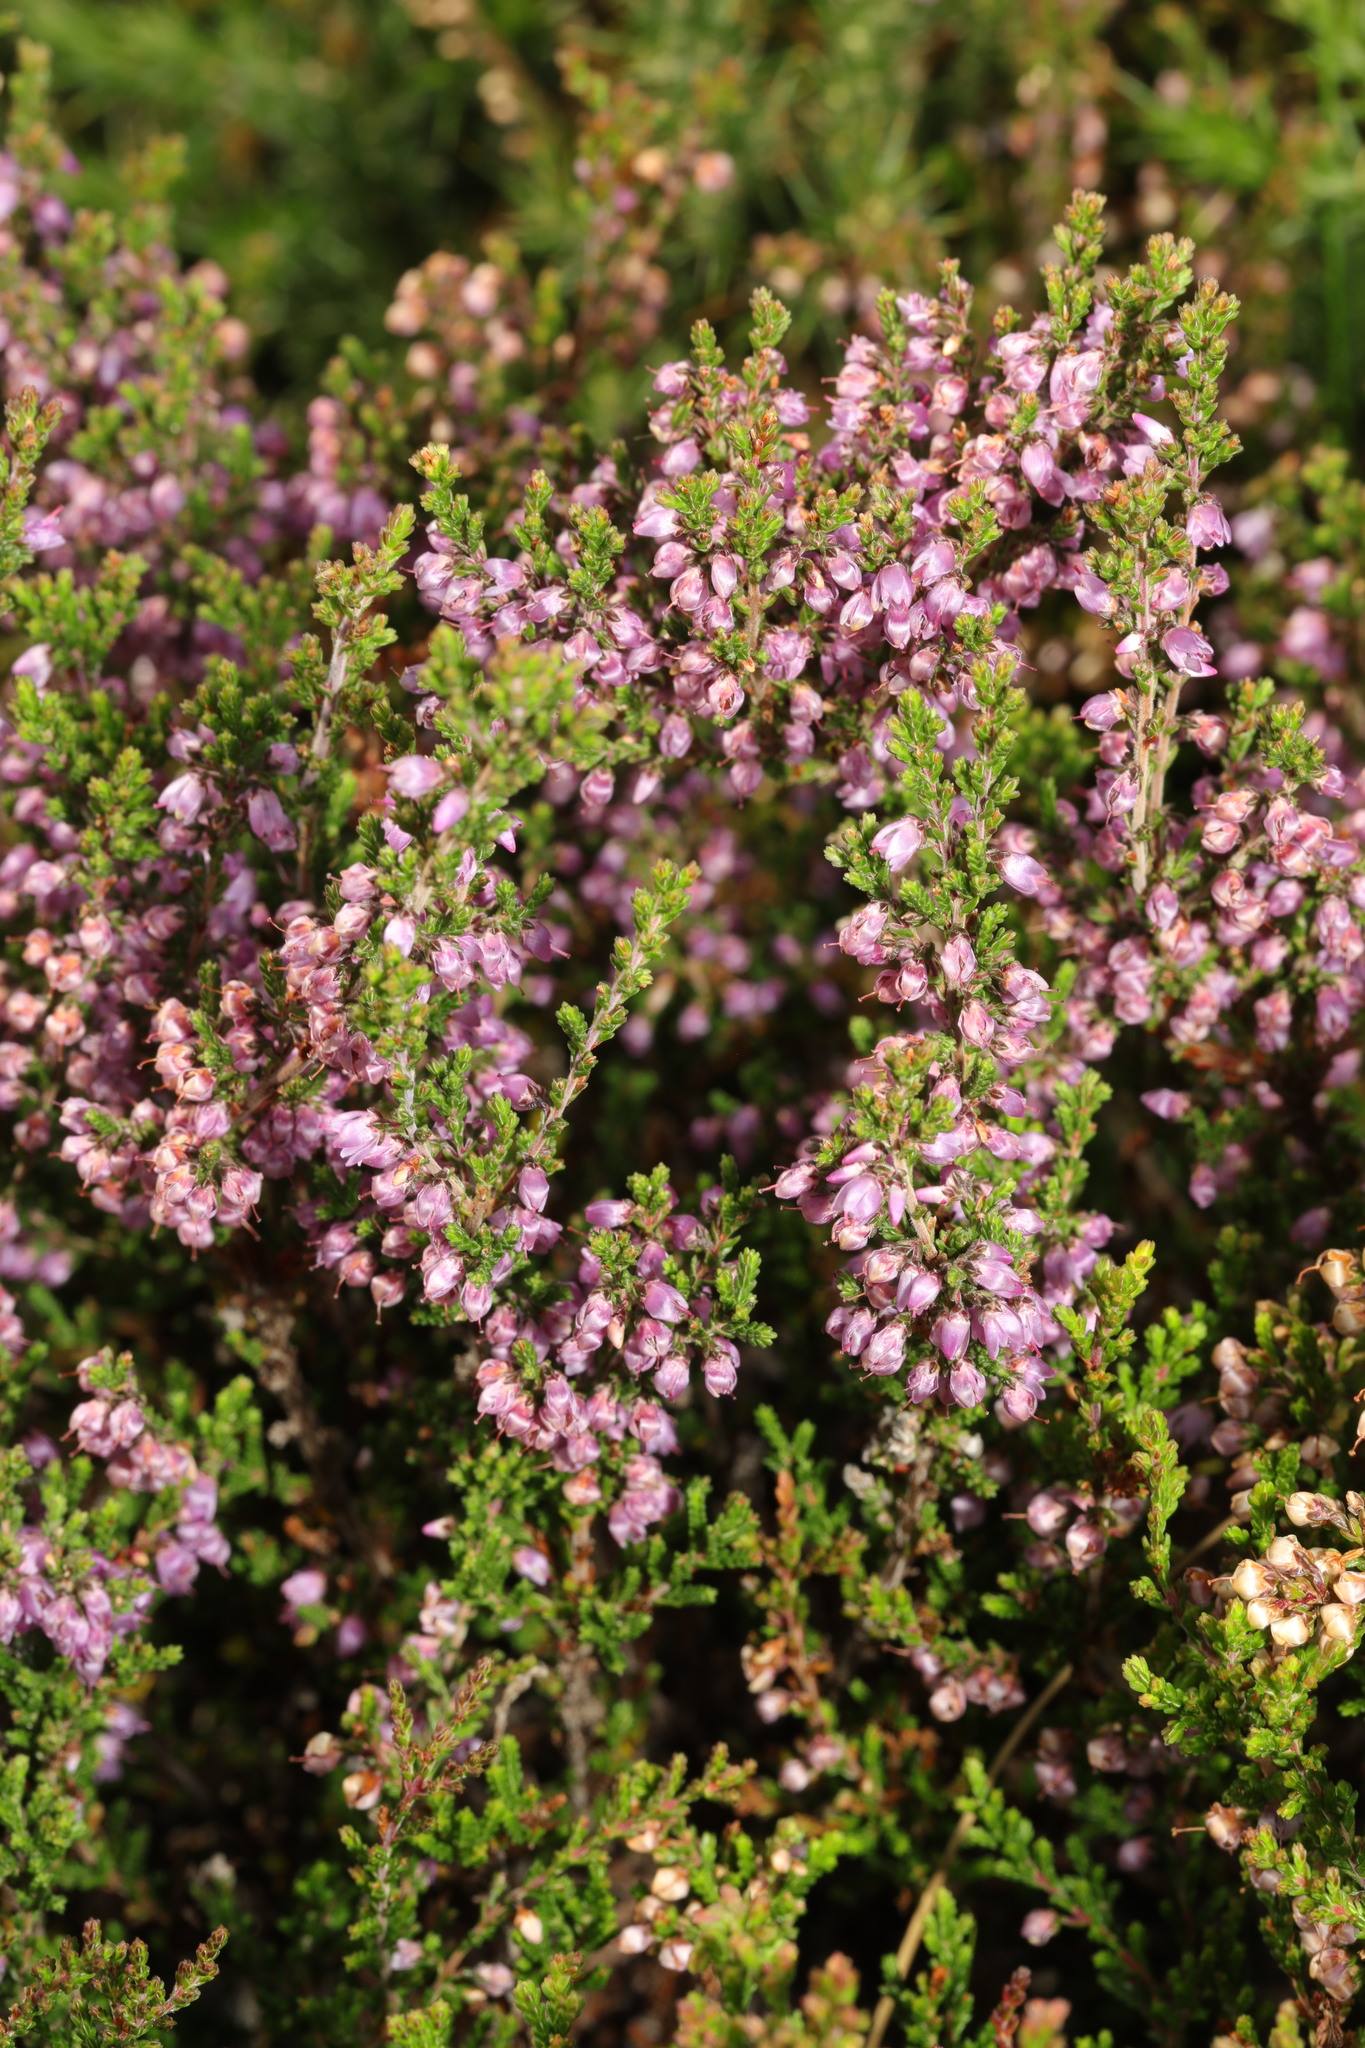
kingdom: Plantae
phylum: Tracheophyta
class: Magnoliopsida
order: Ericales
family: Ericaceae
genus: Calluna
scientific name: Calluna vulgaris
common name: Heather
